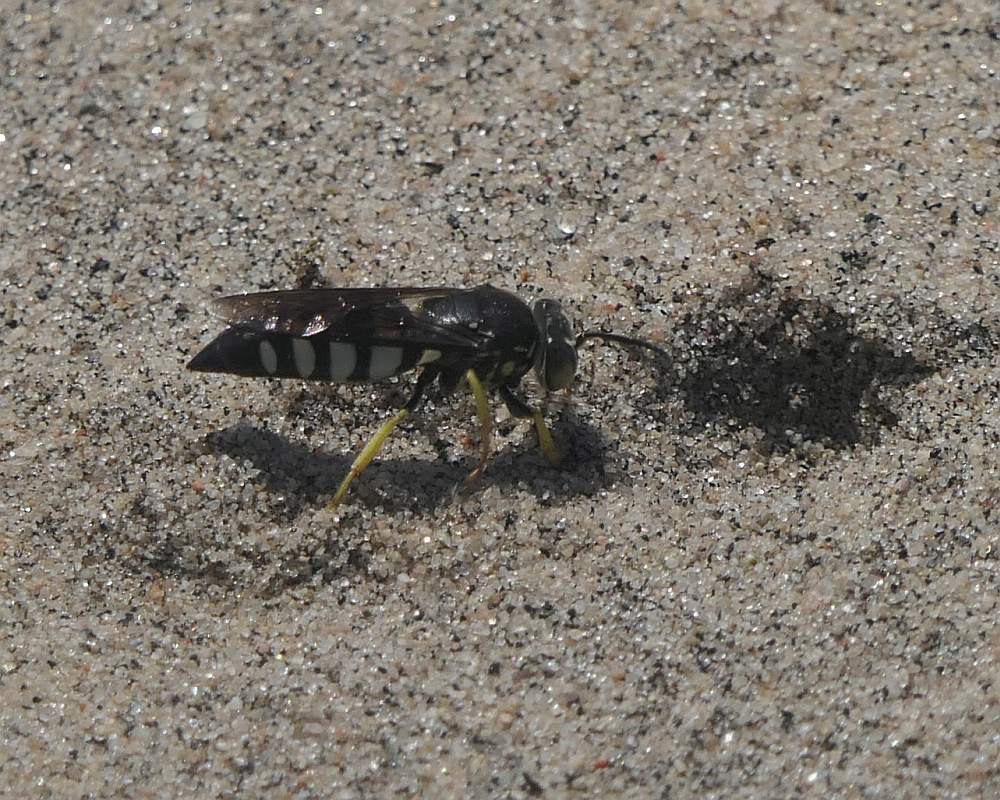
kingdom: Animalia
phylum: Arthropoda
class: Insecta
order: Hymenoptera
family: Crabronidae
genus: Bicyrtes
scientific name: Bicyrtes quadrifasciatus
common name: Four-banded stink bug hunter wasp
